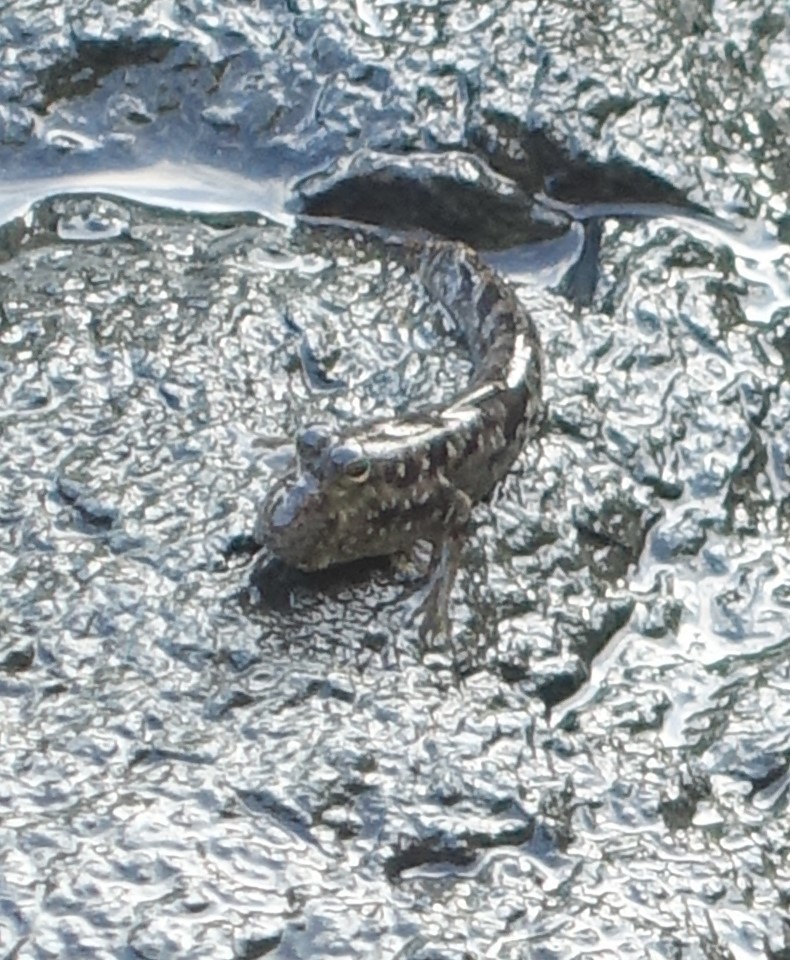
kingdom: Animalia
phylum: Chordata
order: Perciformes
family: Gobiidae
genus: Periophthalmus
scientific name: Periophthalmus argentilineatus
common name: Barred mudskipper
